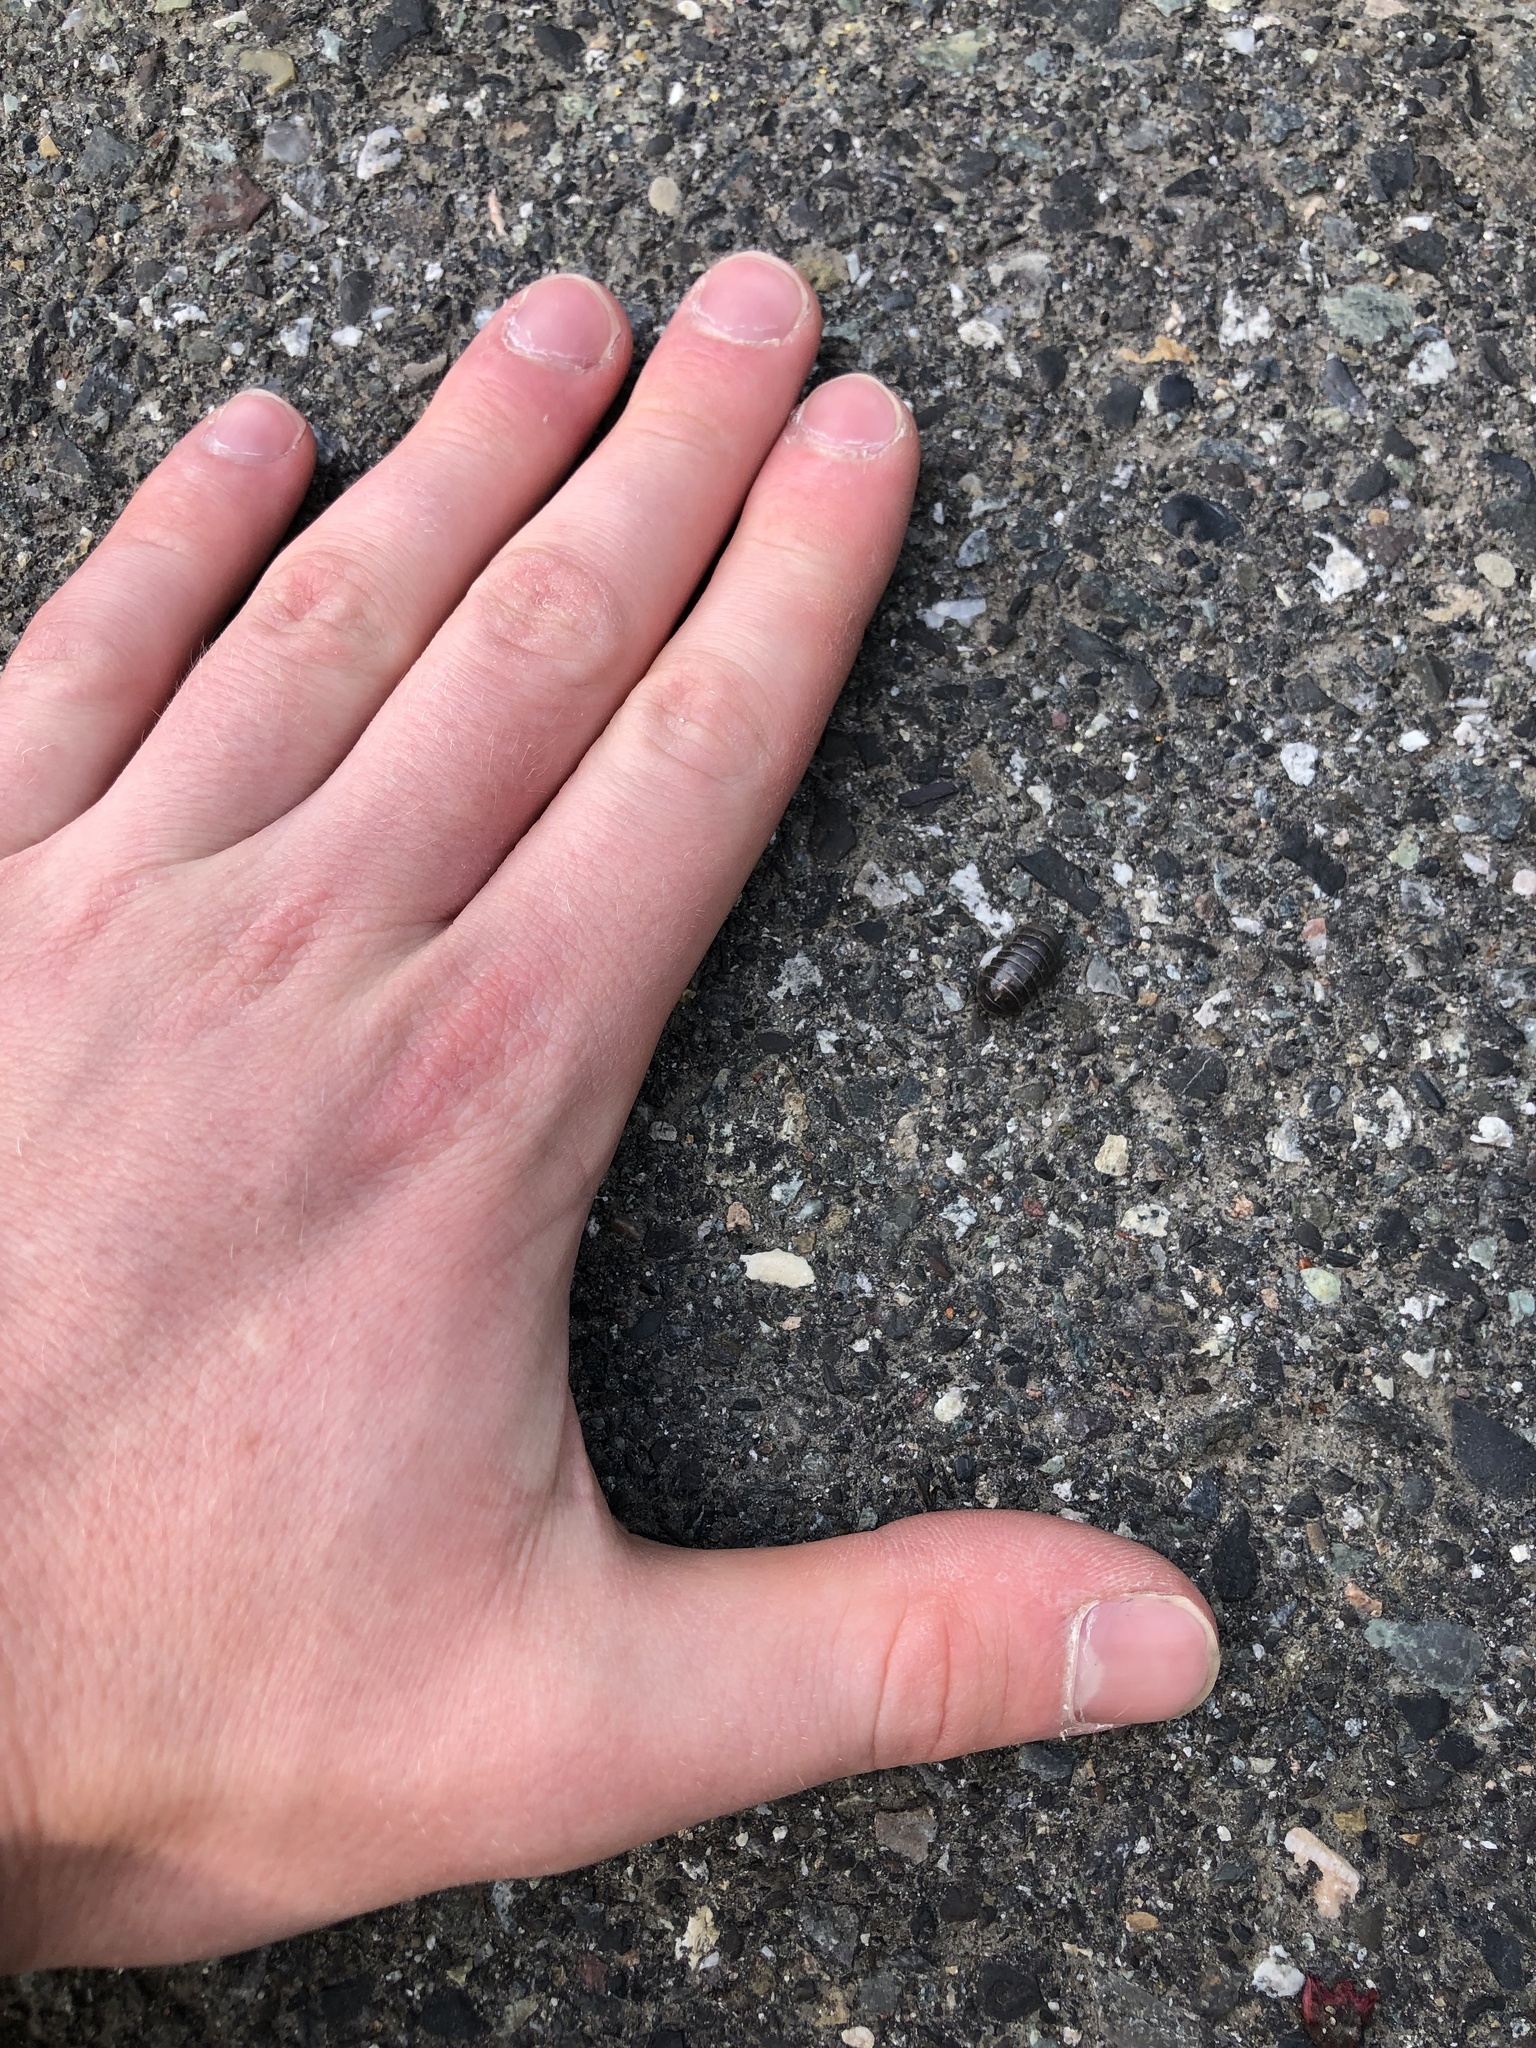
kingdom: Animalia
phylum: Arthropoda
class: Malacostraca
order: Isopoda
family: Armadillidiidae
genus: Armadillidium
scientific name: Armadillidium vulgare
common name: Common pill woodlouse
